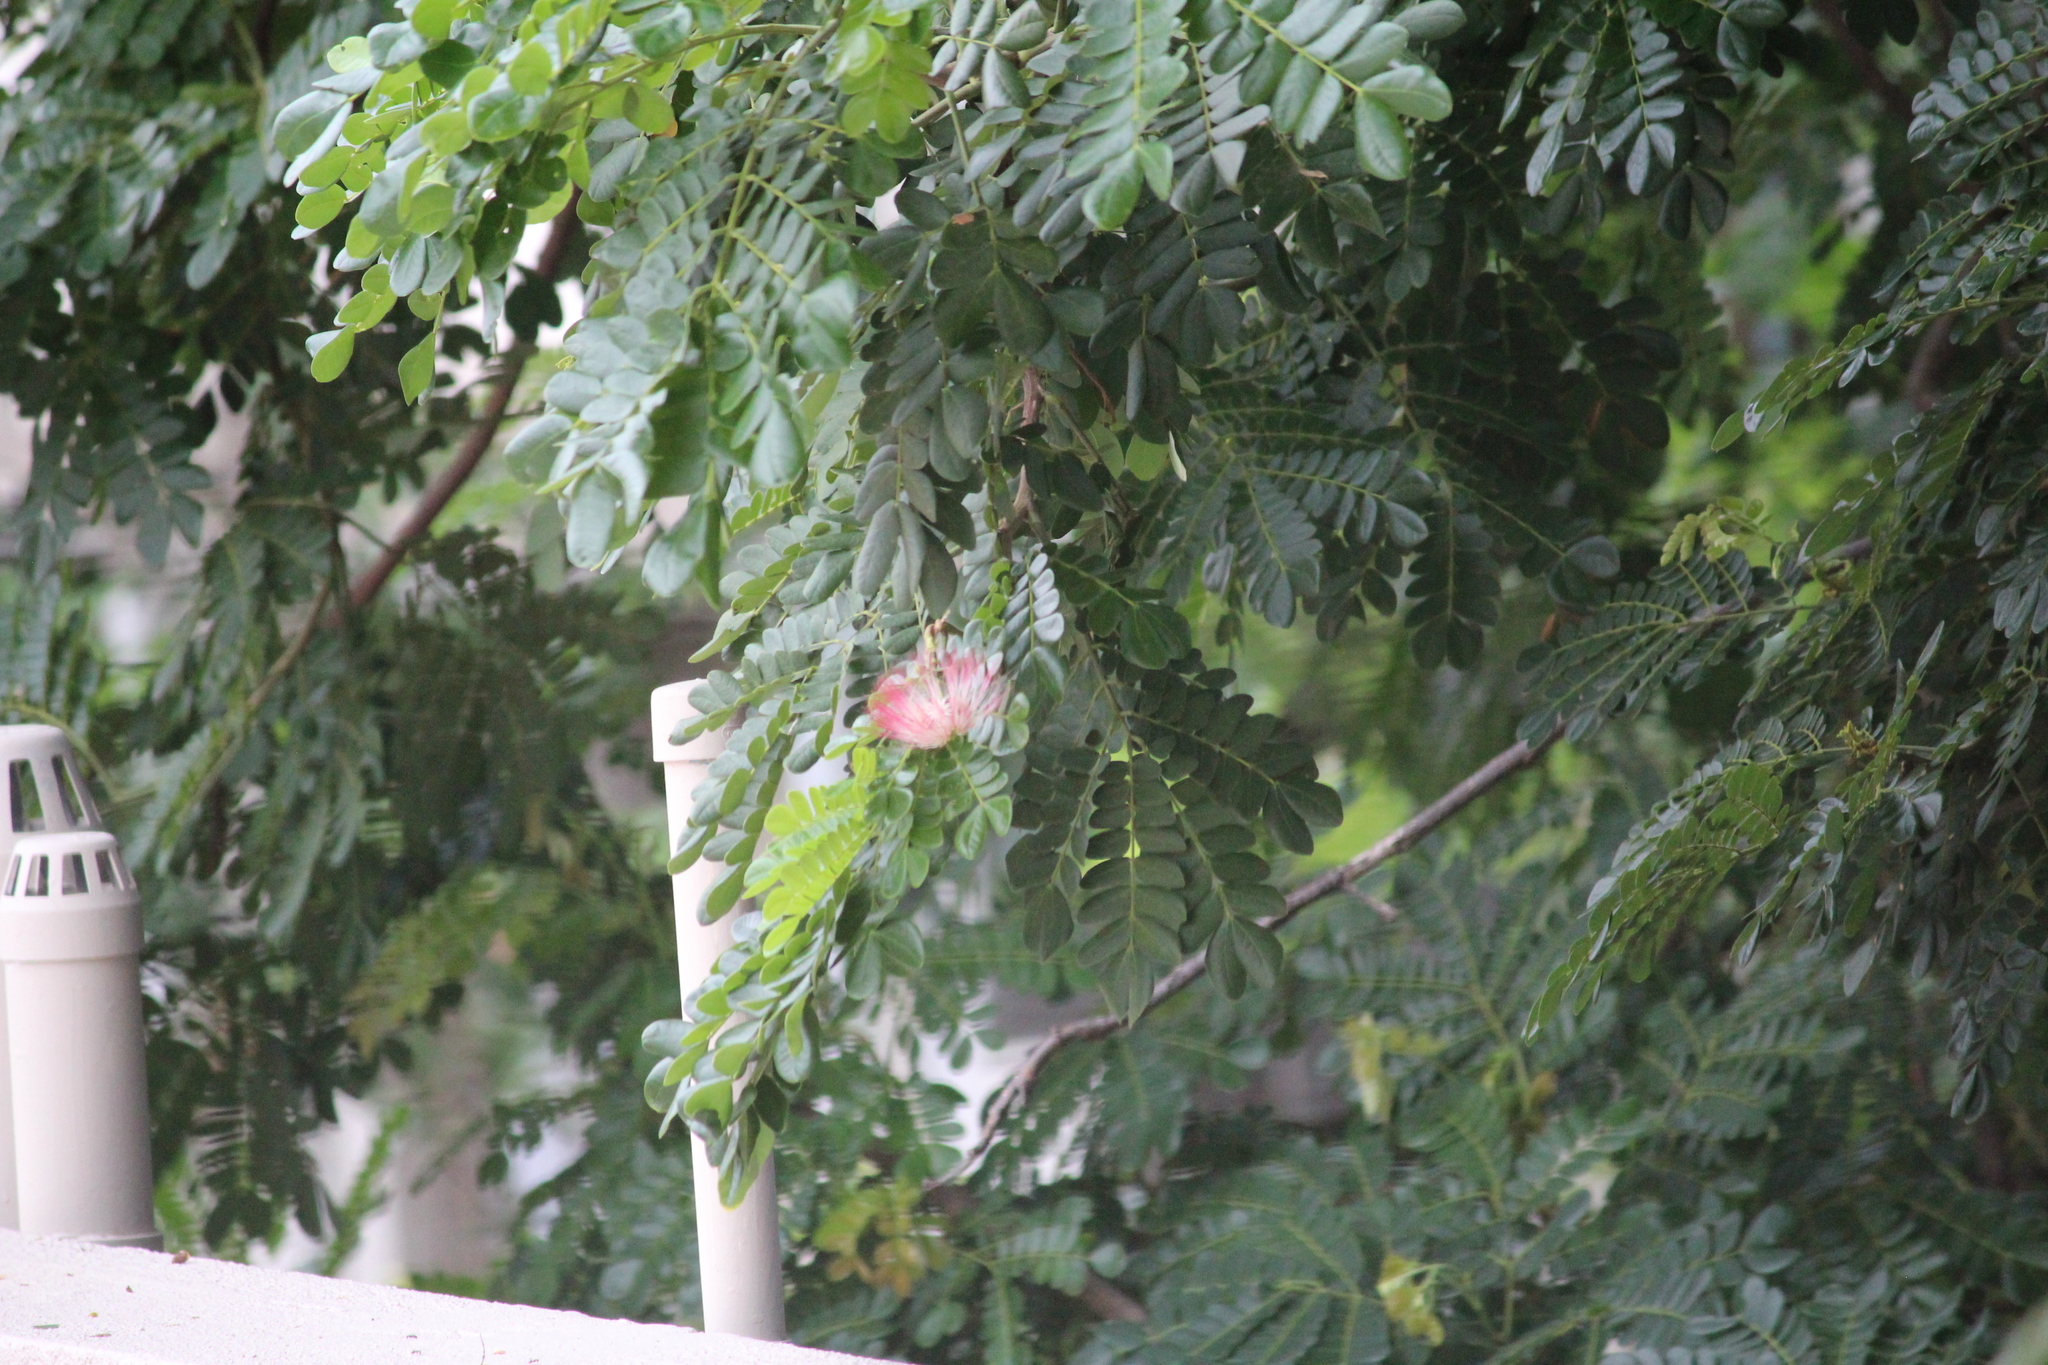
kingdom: Plantae
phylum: Tracheophyta
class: Magnoliopsida
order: Fabales
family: Fabaceae
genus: Samanea
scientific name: Samanea saman
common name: Raintree
